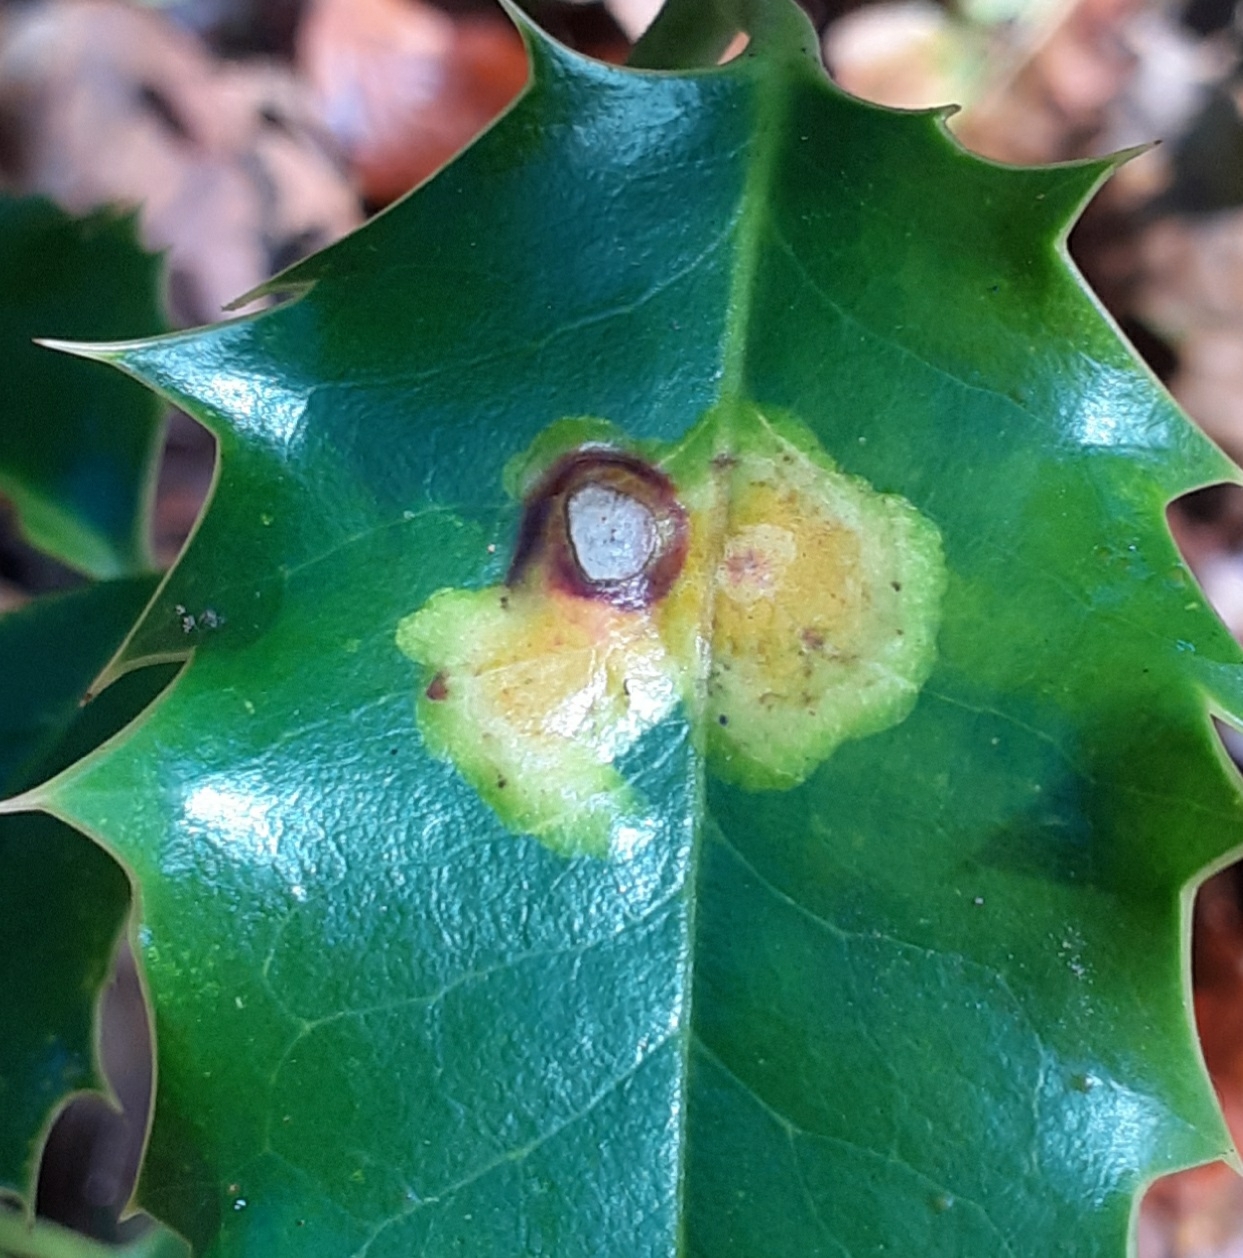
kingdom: Animalia
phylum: Arthropoda
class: Insecta
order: Diptera
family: Agromyzidae
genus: Phytomyza
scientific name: Phytomyza ilicis
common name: Holly leafminer
